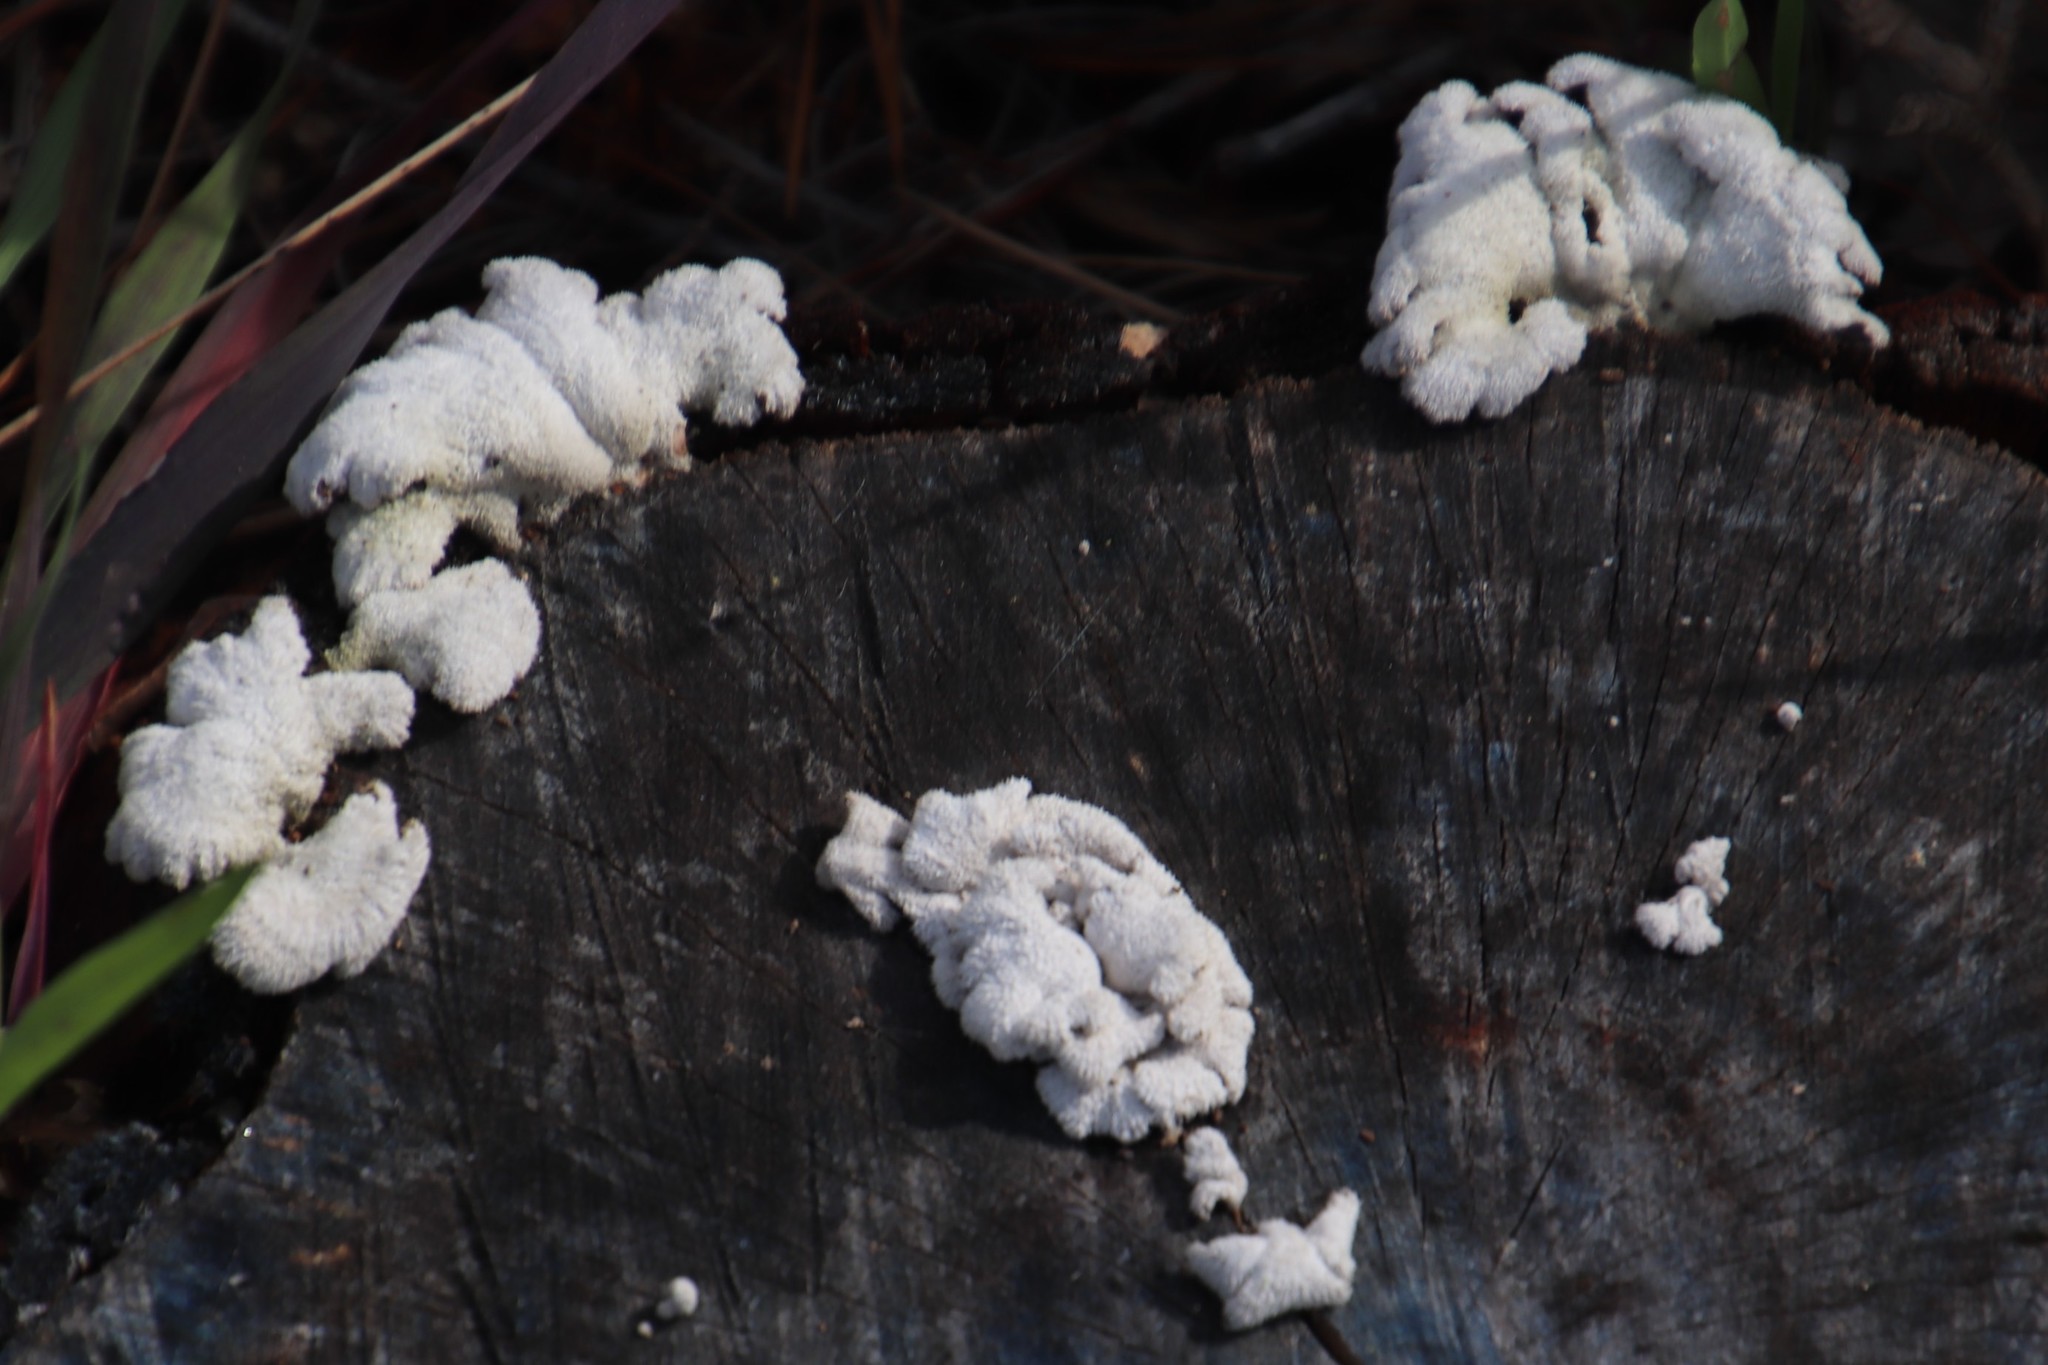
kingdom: Fungi
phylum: Basidiomycota
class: Agaricomycetes
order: Agaricales
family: Schizophyllaceae
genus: Schizophyllum
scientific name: Schizophyllum commune
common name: Common porecrust
